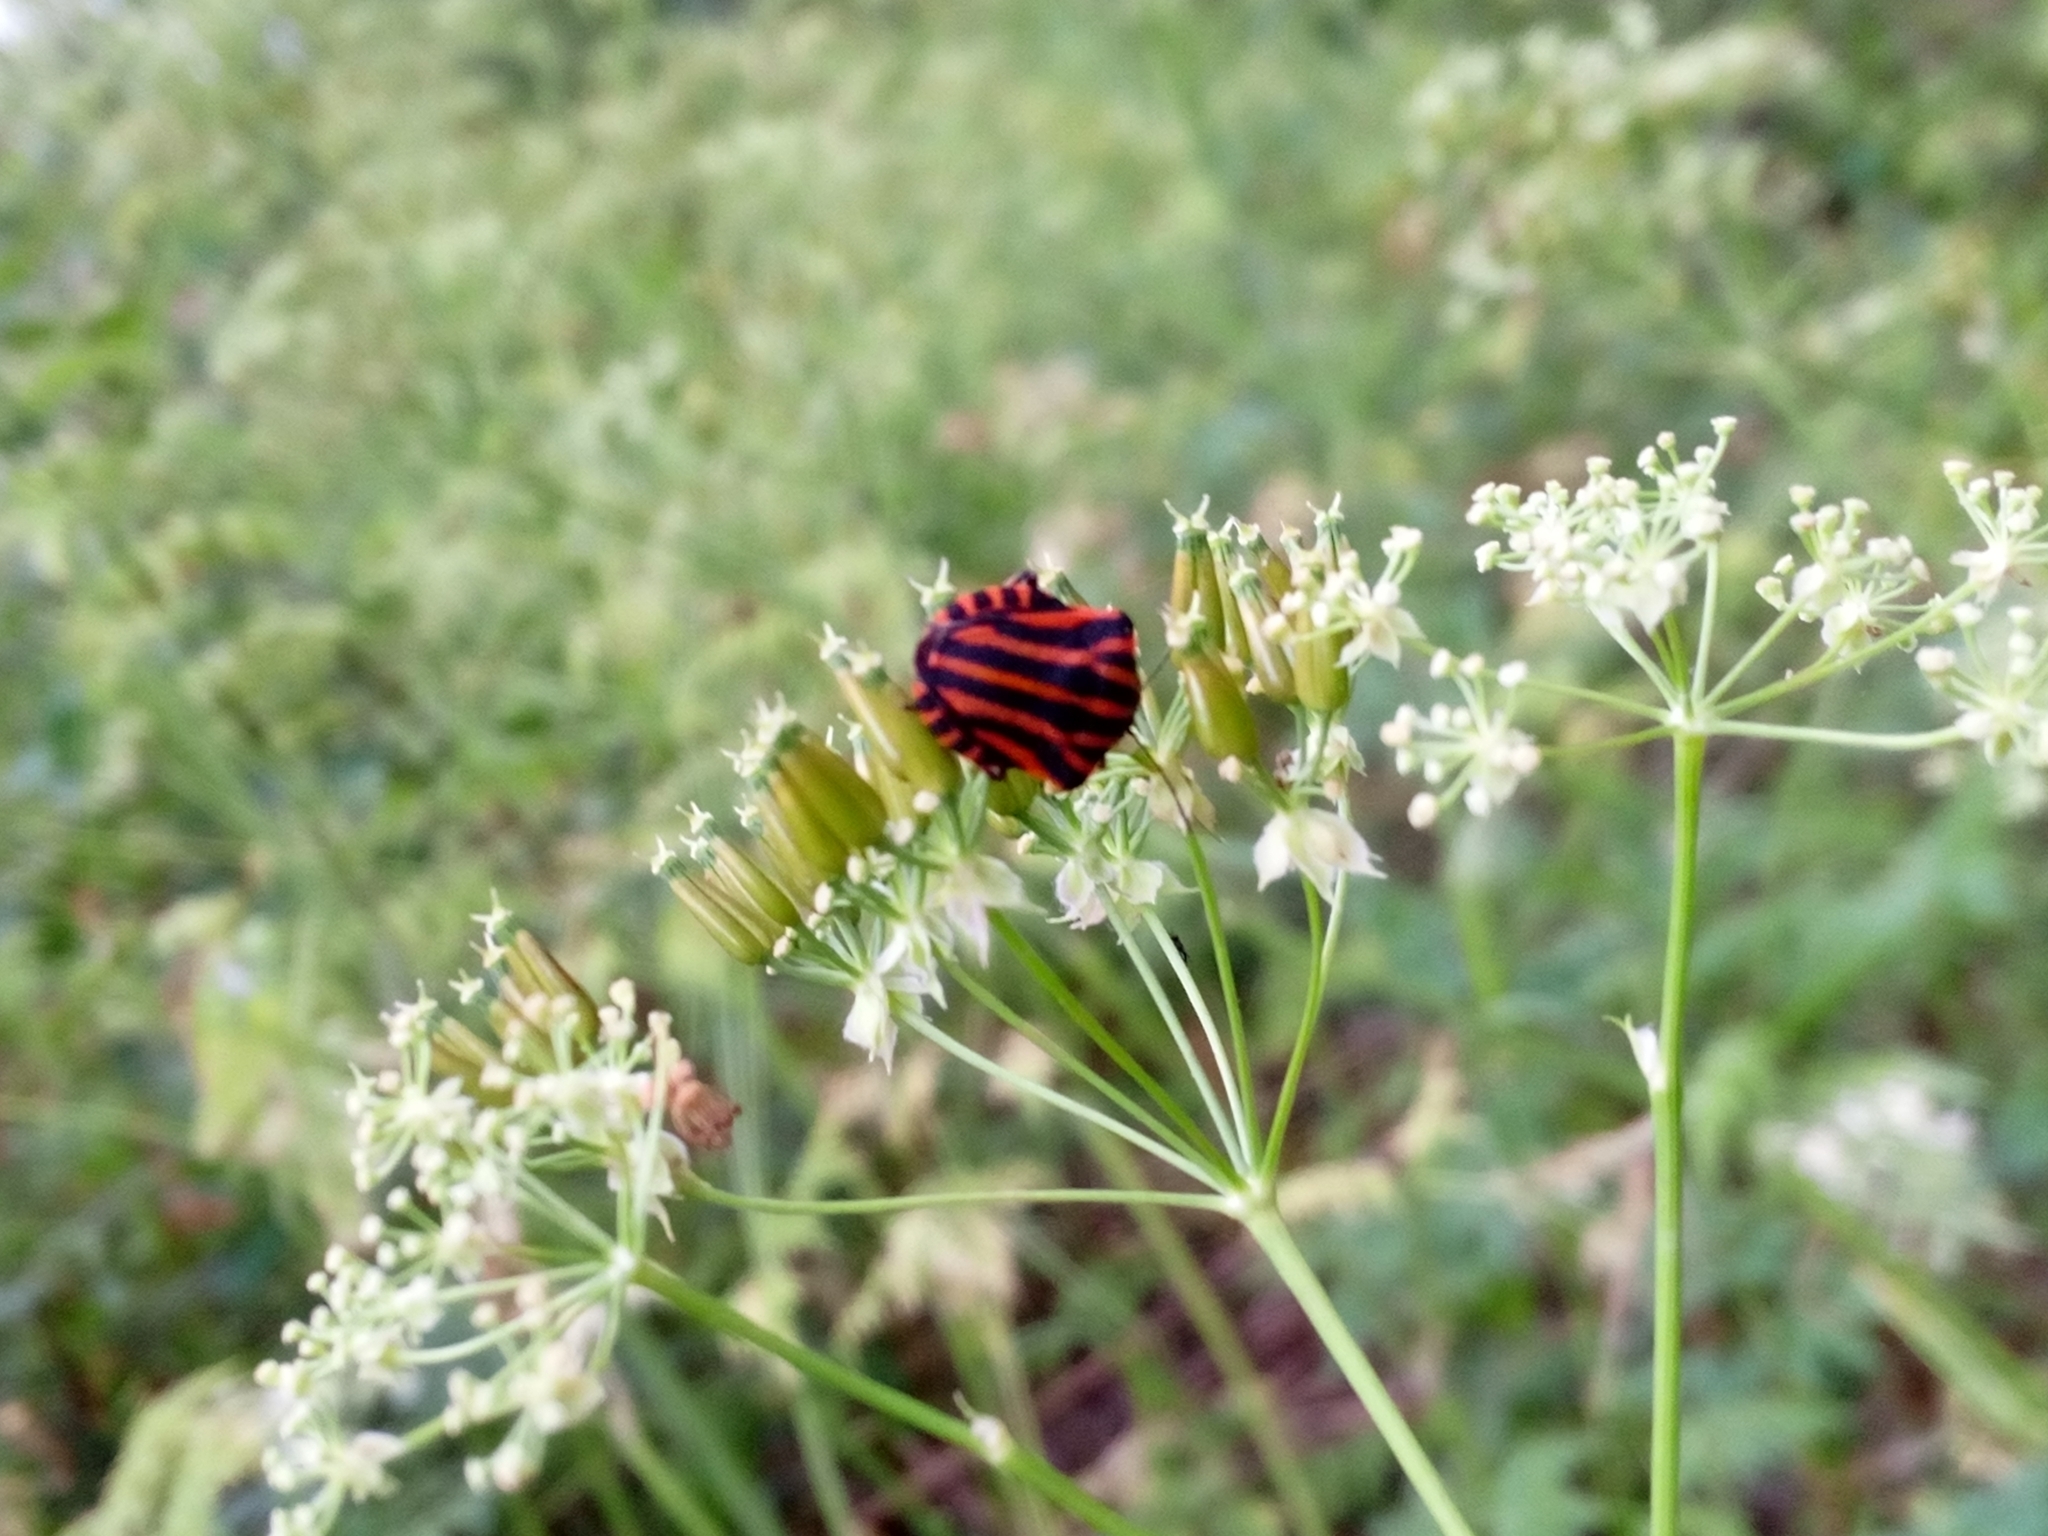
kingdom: Animalia
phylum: Arthropoda
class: Insecta
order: Hemiptera
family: Pentatomidae
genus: Graphosoma
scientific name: Graphosoma italicum
